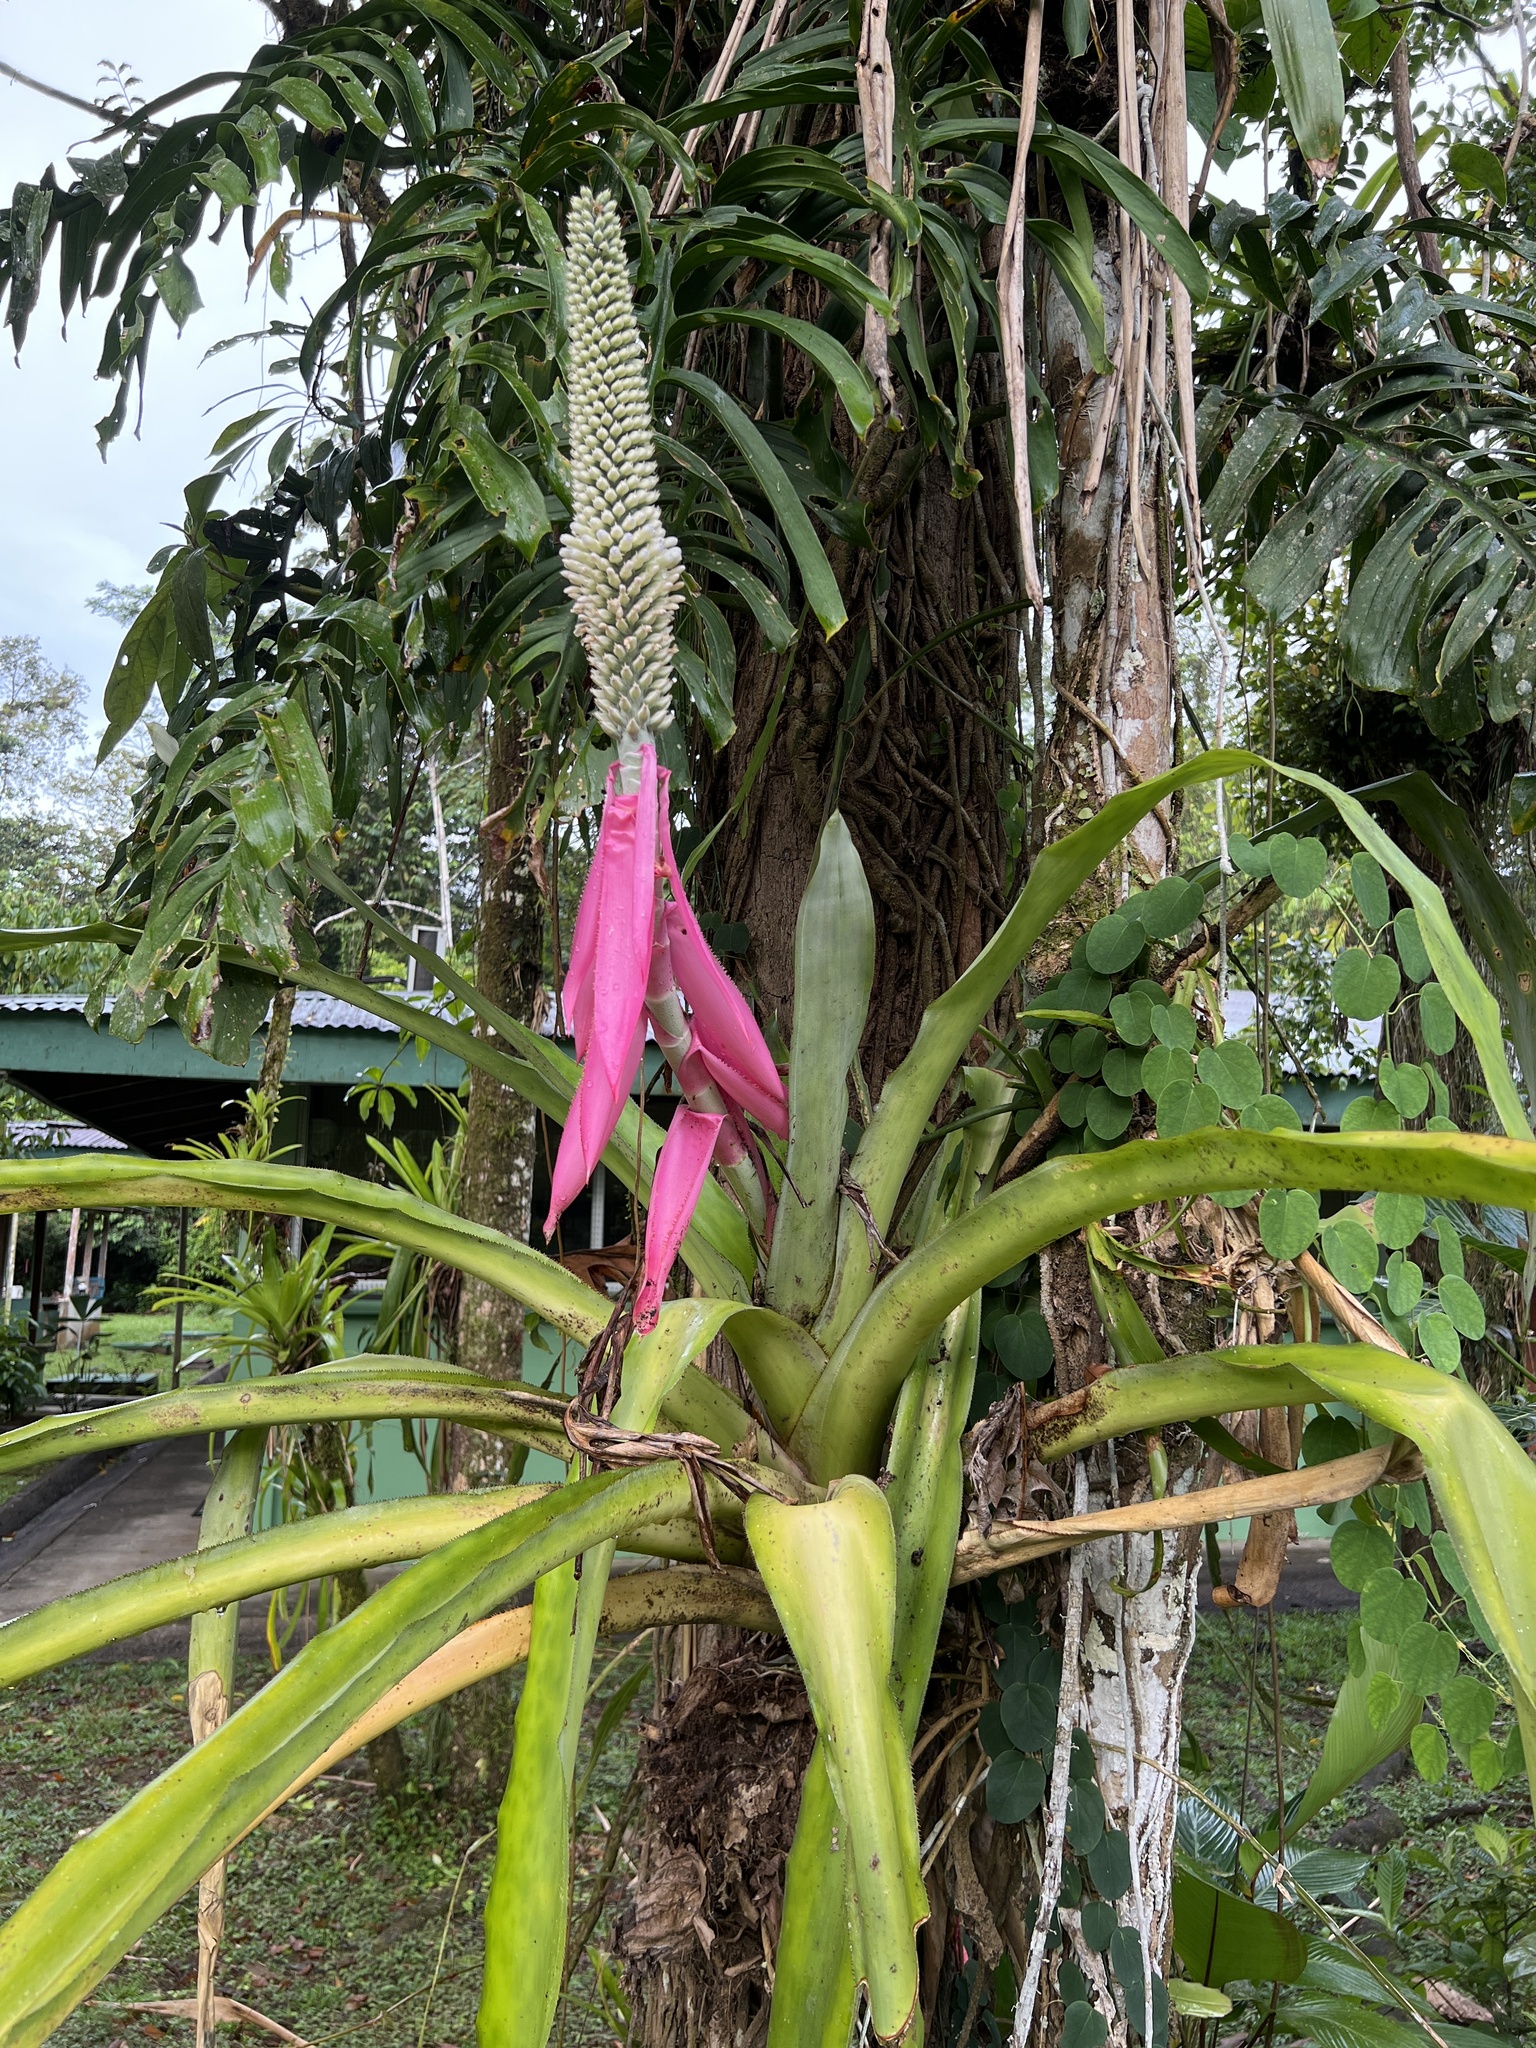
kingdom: Plantae
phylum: Tracheophyta
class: Liliopsida
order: Poales
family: Bromeliaceae
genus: Aechmea
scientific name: Aechmea mariae-reginae
